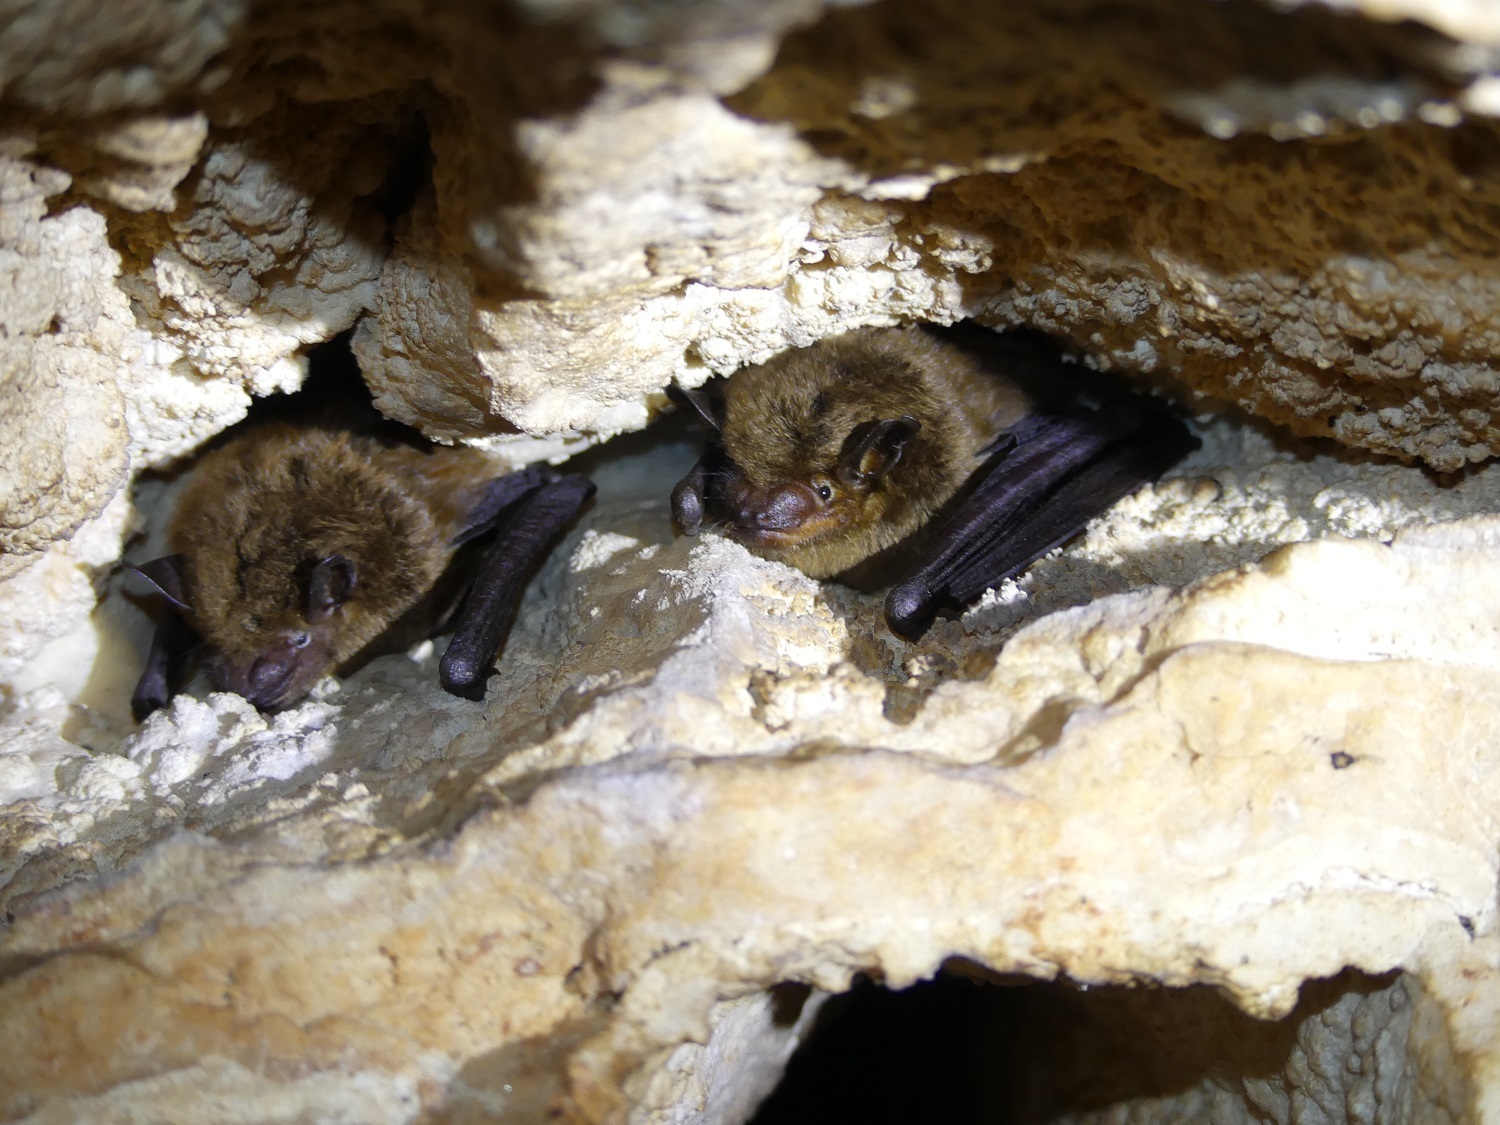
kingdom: Animalia
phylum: Chordata
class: Mammalia
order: Chiroptera
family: Vespertilionidae
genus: Eptesicus
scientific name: Eptesicus fuscus
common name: Big brown bat
